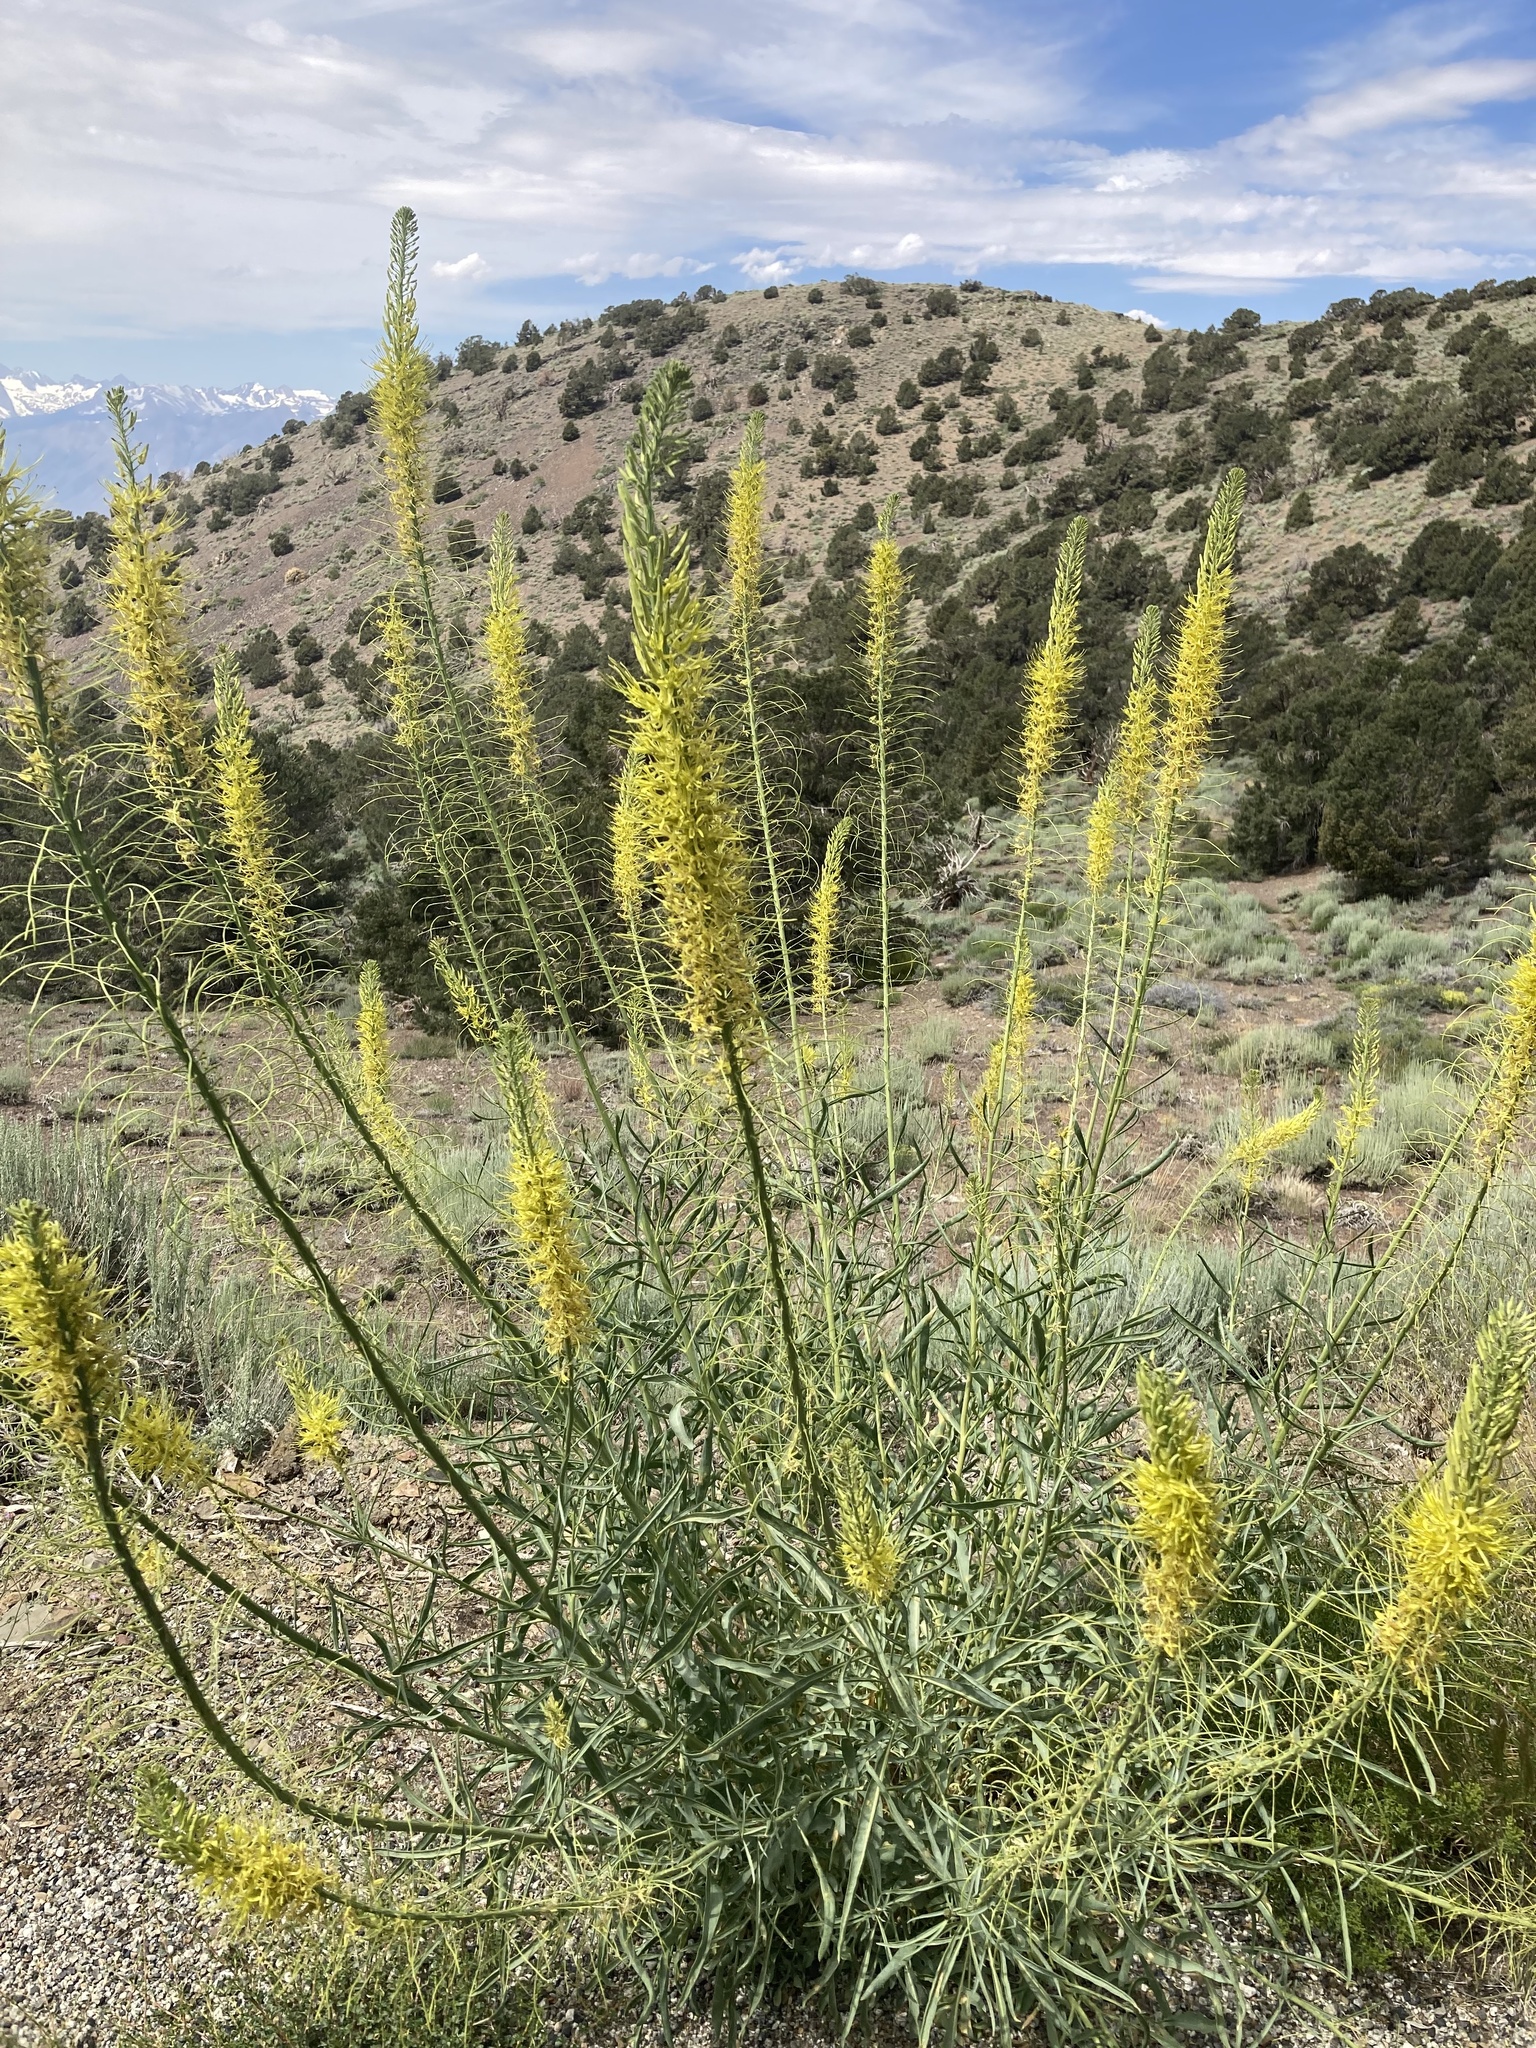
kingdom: Plantae
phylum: Tracheophyta
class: Magnoliopsida
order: Brassicales
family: Brassicaceae
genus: Stanleya
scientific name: Stanleya pinnata
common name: Prince's-plume
